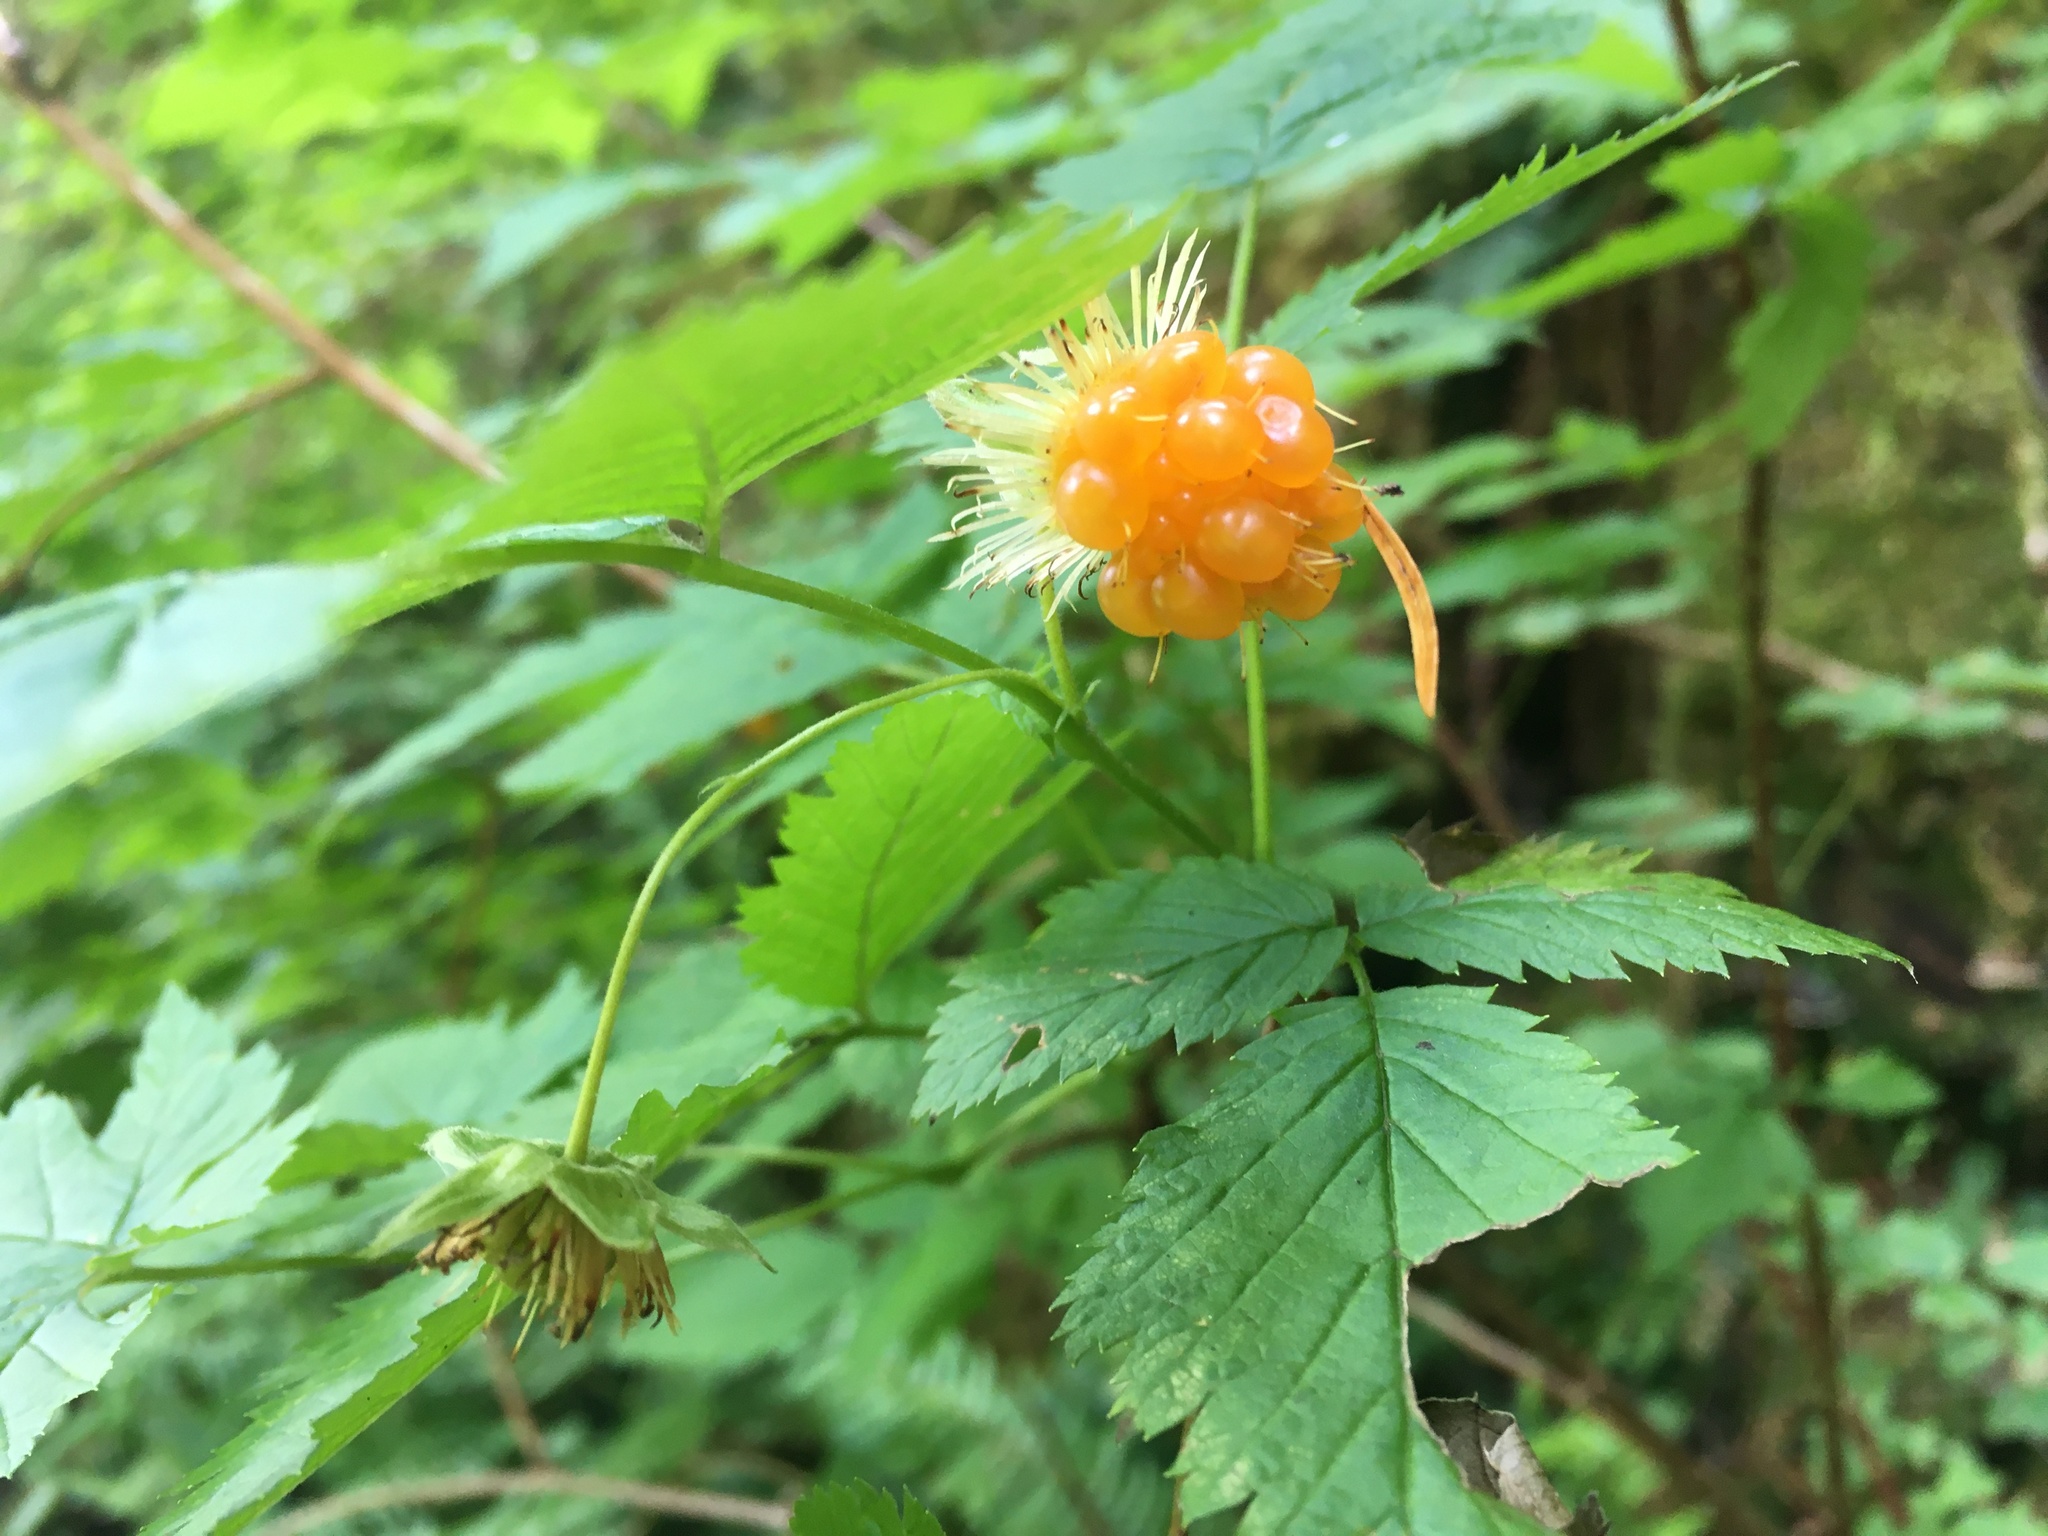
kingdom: Plantae
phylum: Tracheophyta
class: Magnoliopsida
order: Rosales
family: Rosaceae
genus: Rubus
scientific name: Rubus spectabilis
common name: Salmonberry
